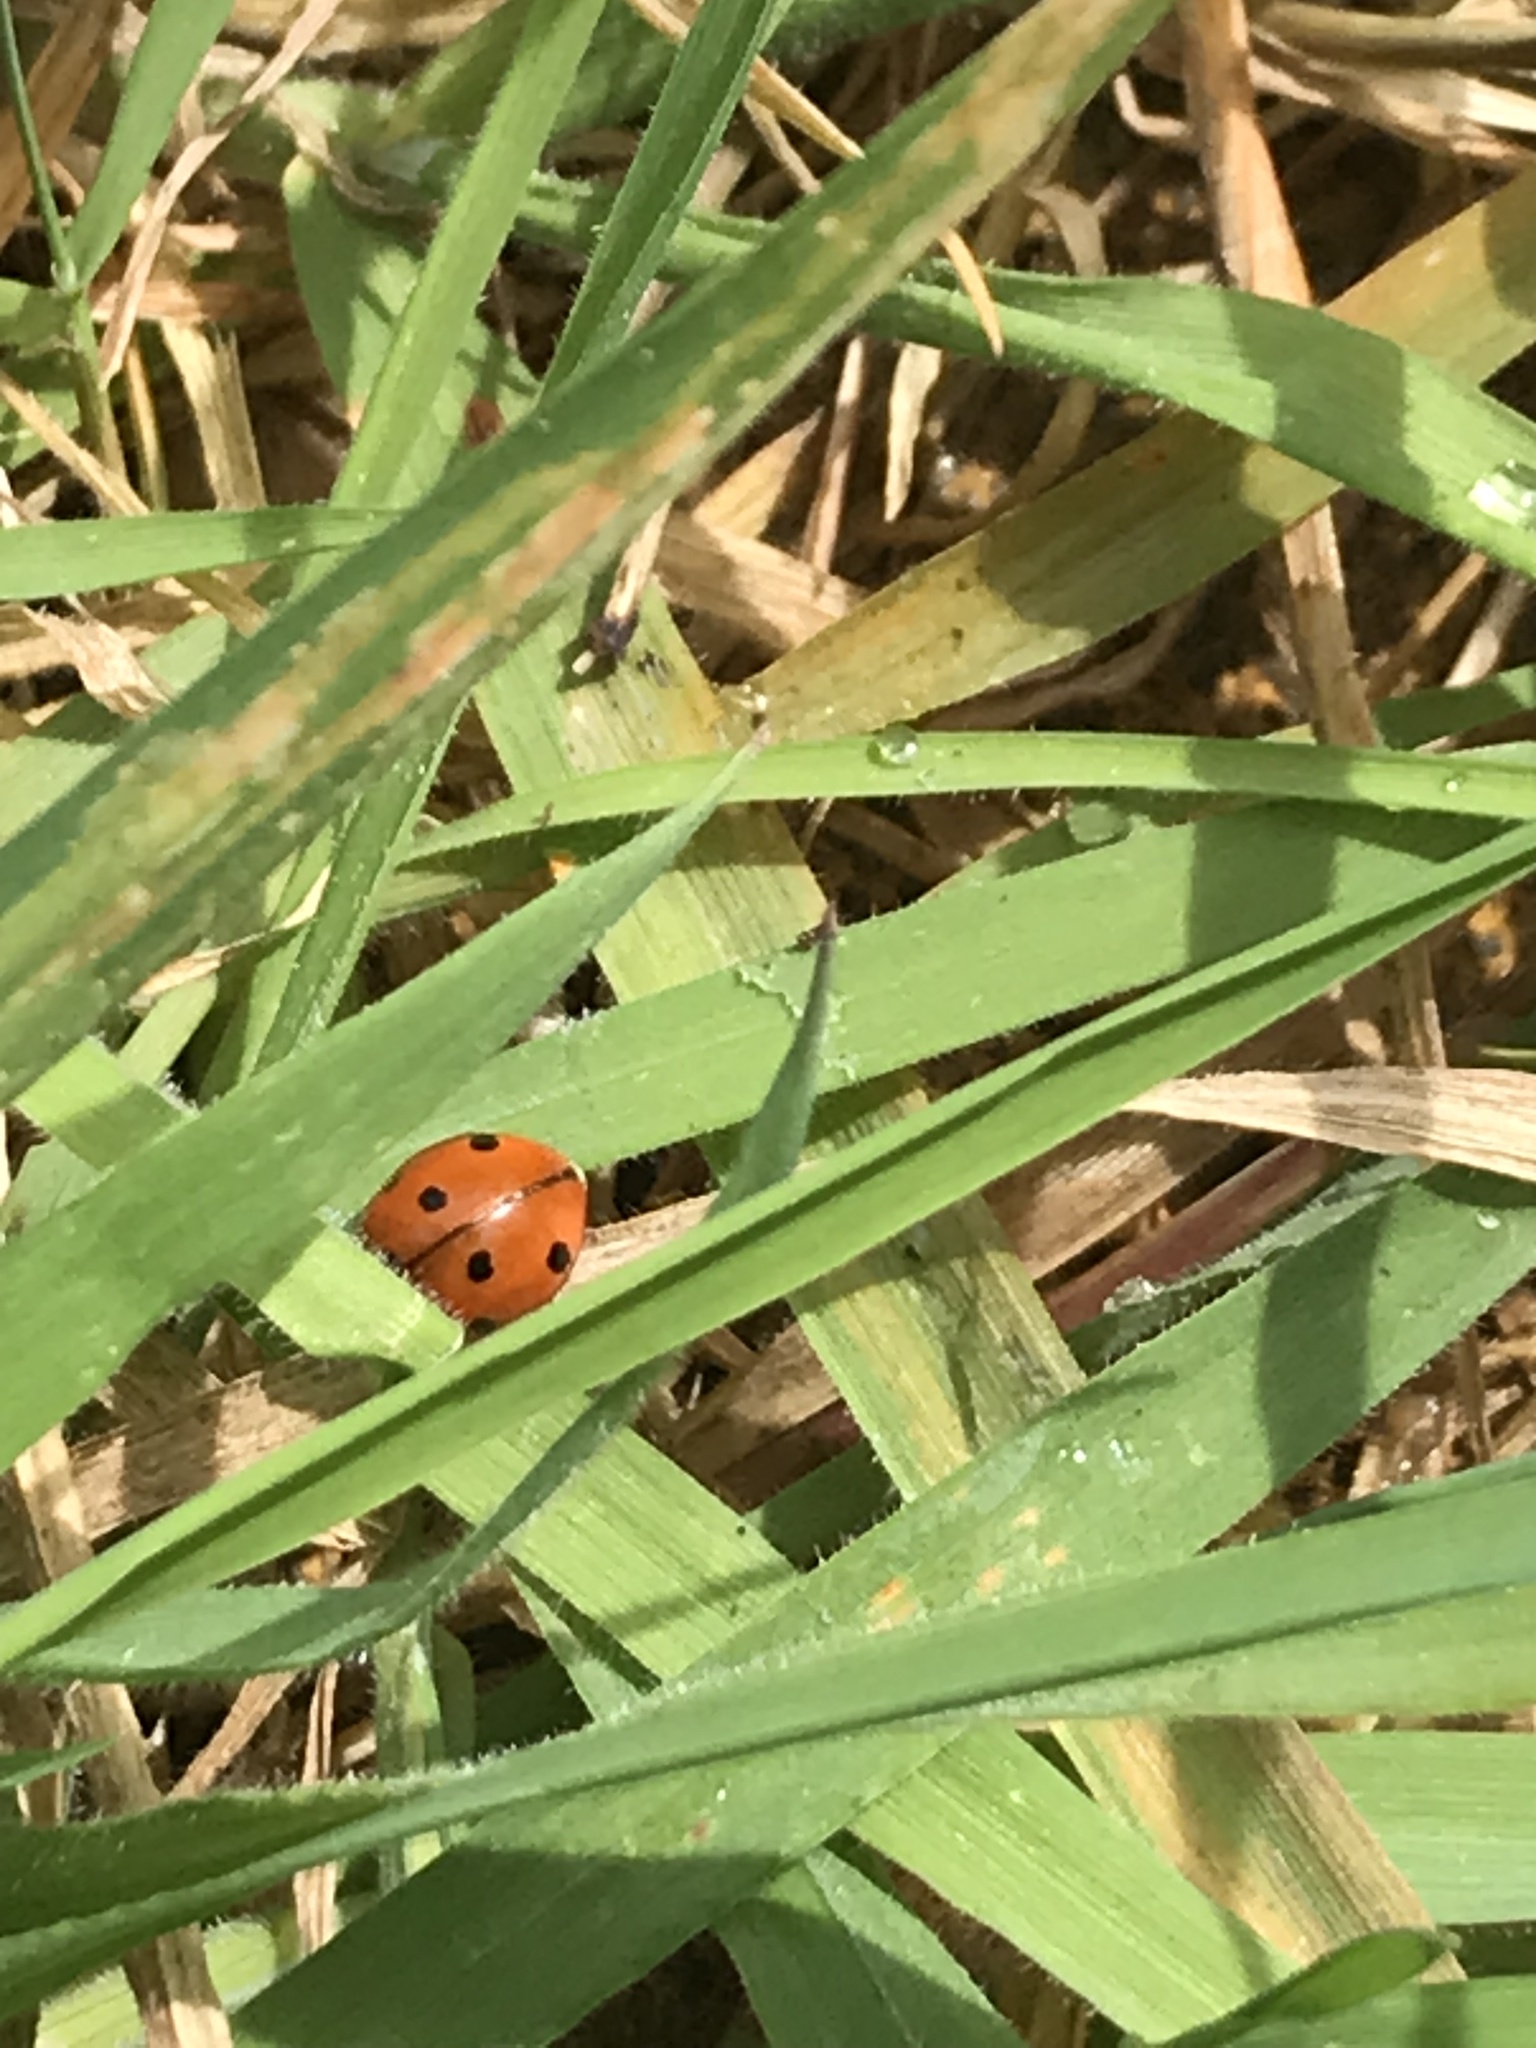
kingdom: Animalia
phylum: Arthropoda
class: Insecta
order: Coleoptera
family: Coccinellidae
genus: Coccinella
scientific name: Coccinella septempunctata
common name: Sevenspotted lady beetle
